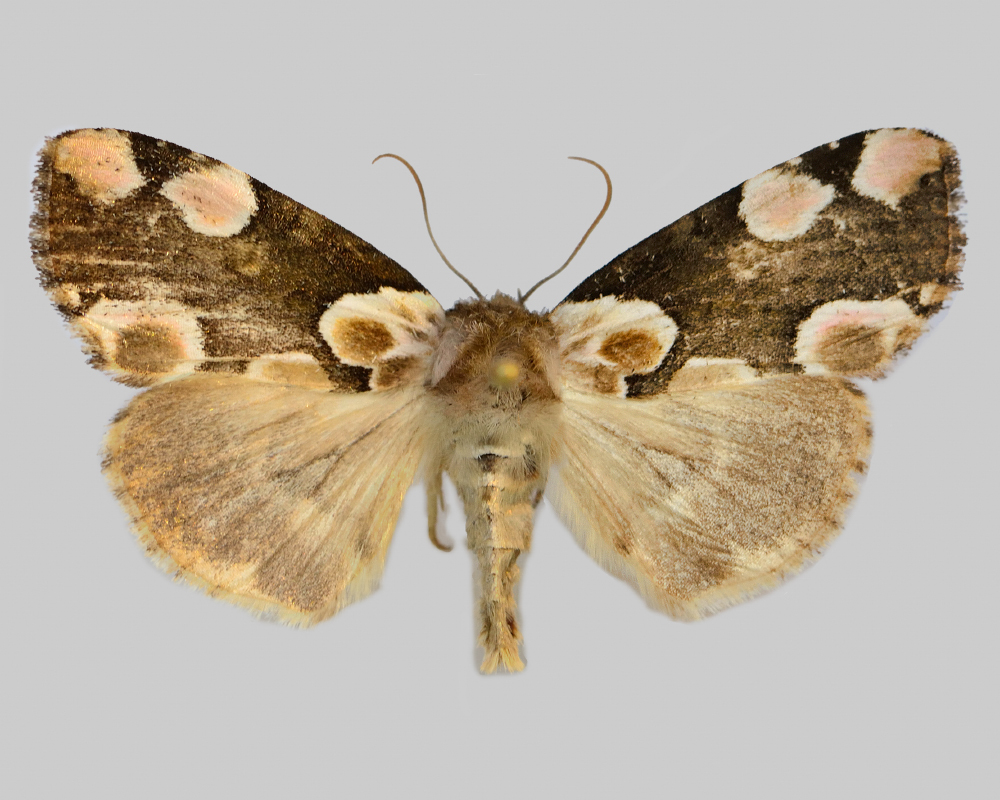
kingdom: Animalia
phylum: Arthropoda
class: Insecta
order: Lepidoptera
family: Drepanidae
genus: Thyatira
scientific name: Thyatira batis
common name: Peach blossom
